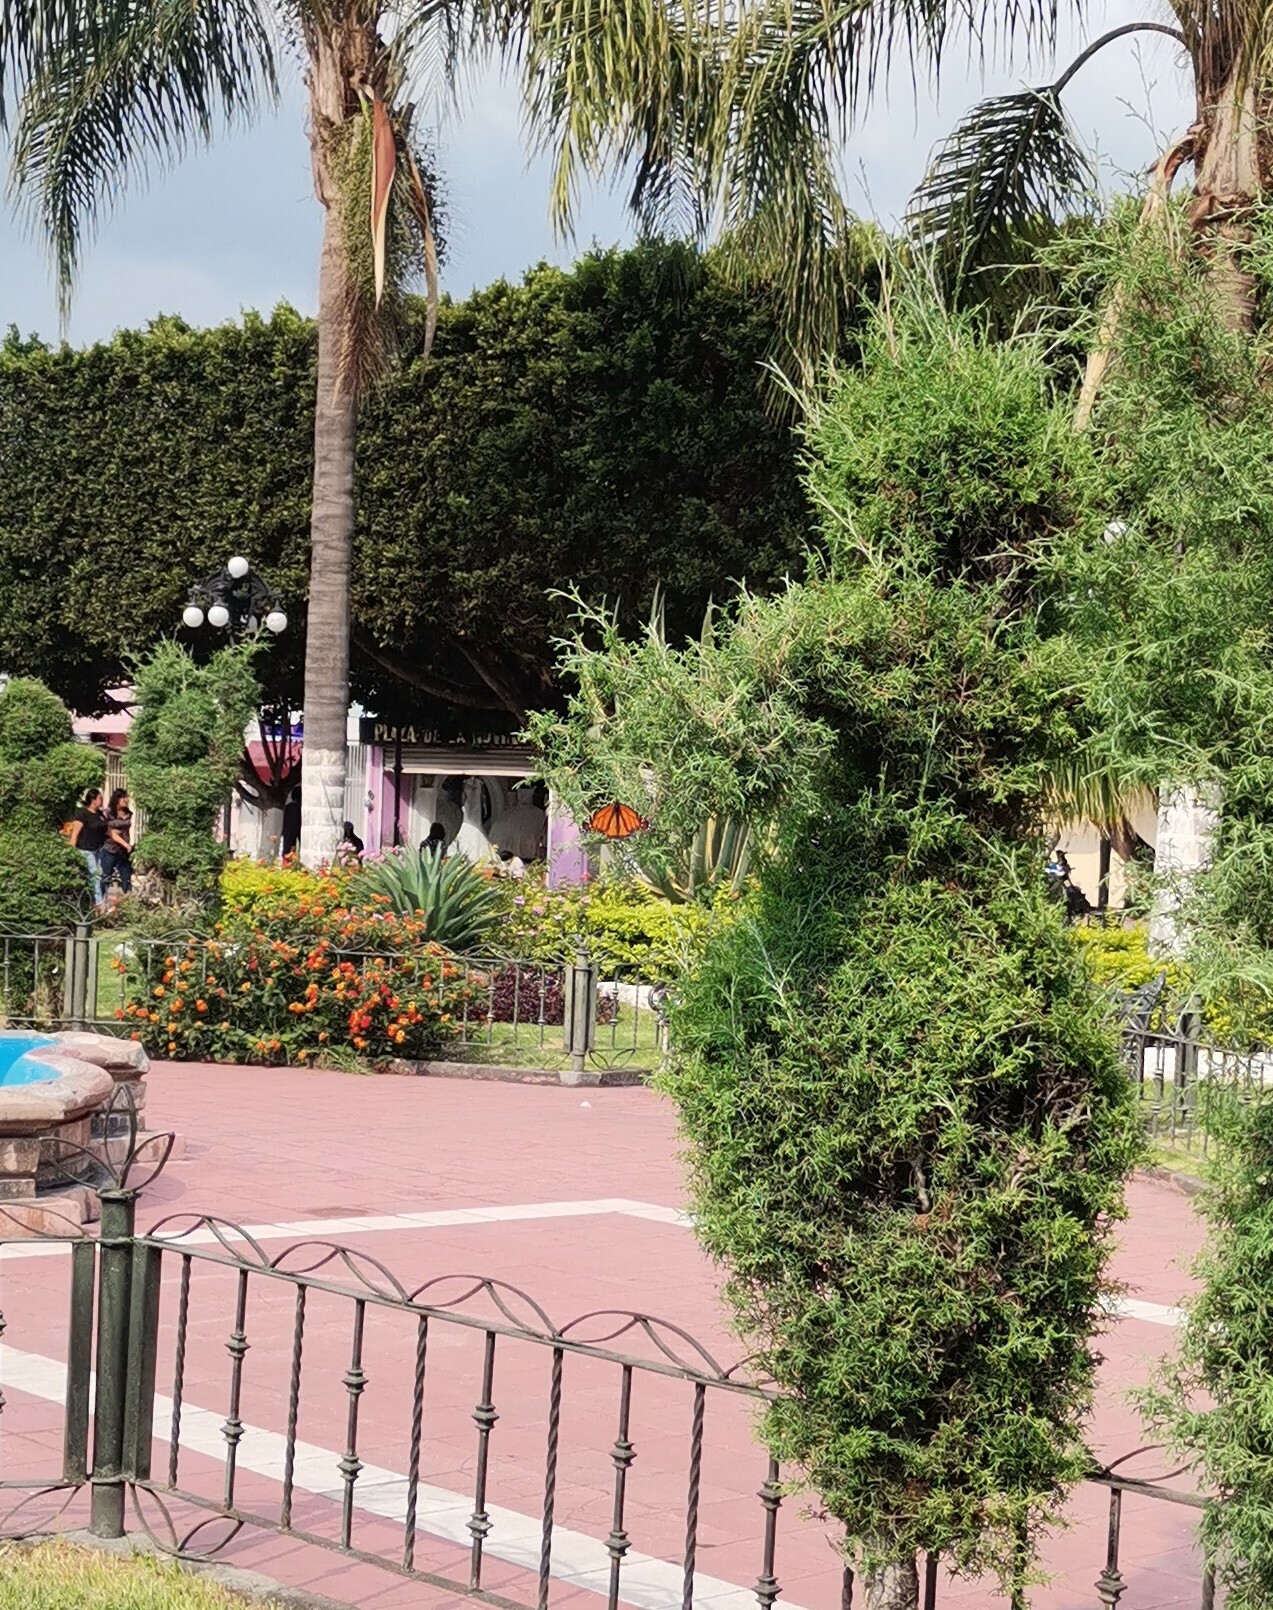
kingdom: Animalia
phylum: Arthropoda
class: Insecta
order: Lepidoptera
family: Nymphalidae
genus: Danaus
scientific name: Danaus plexippus
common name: Monarch
